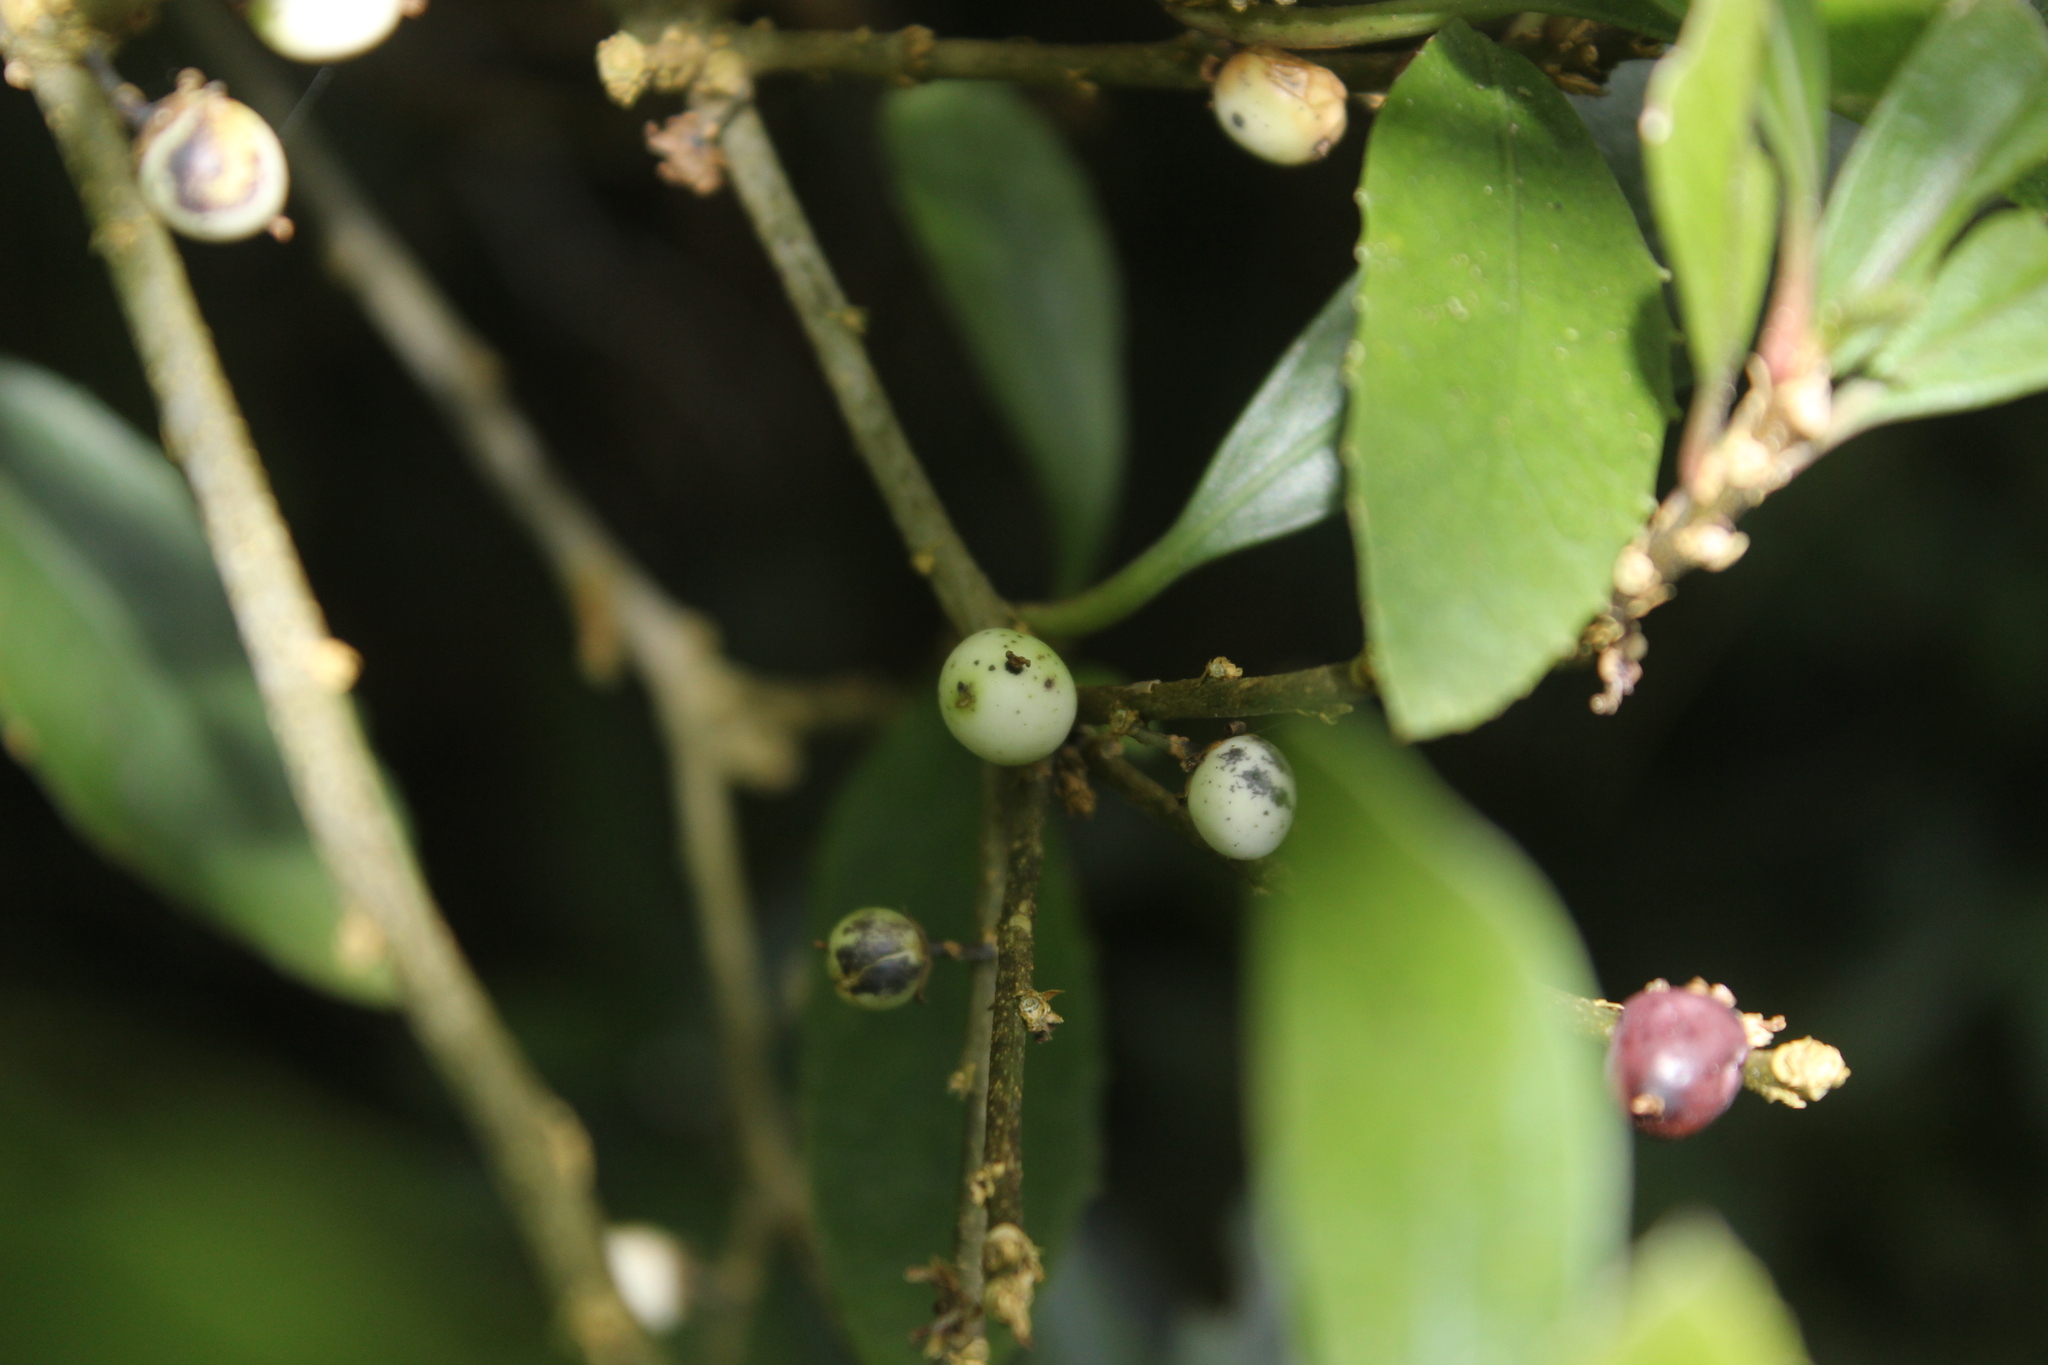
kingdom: Plantae
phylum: Tracheophyta
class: Magnoliopsida
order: Malpighiales
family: Violaceae
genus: Melicytus
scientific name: Melicytus chathamicus
